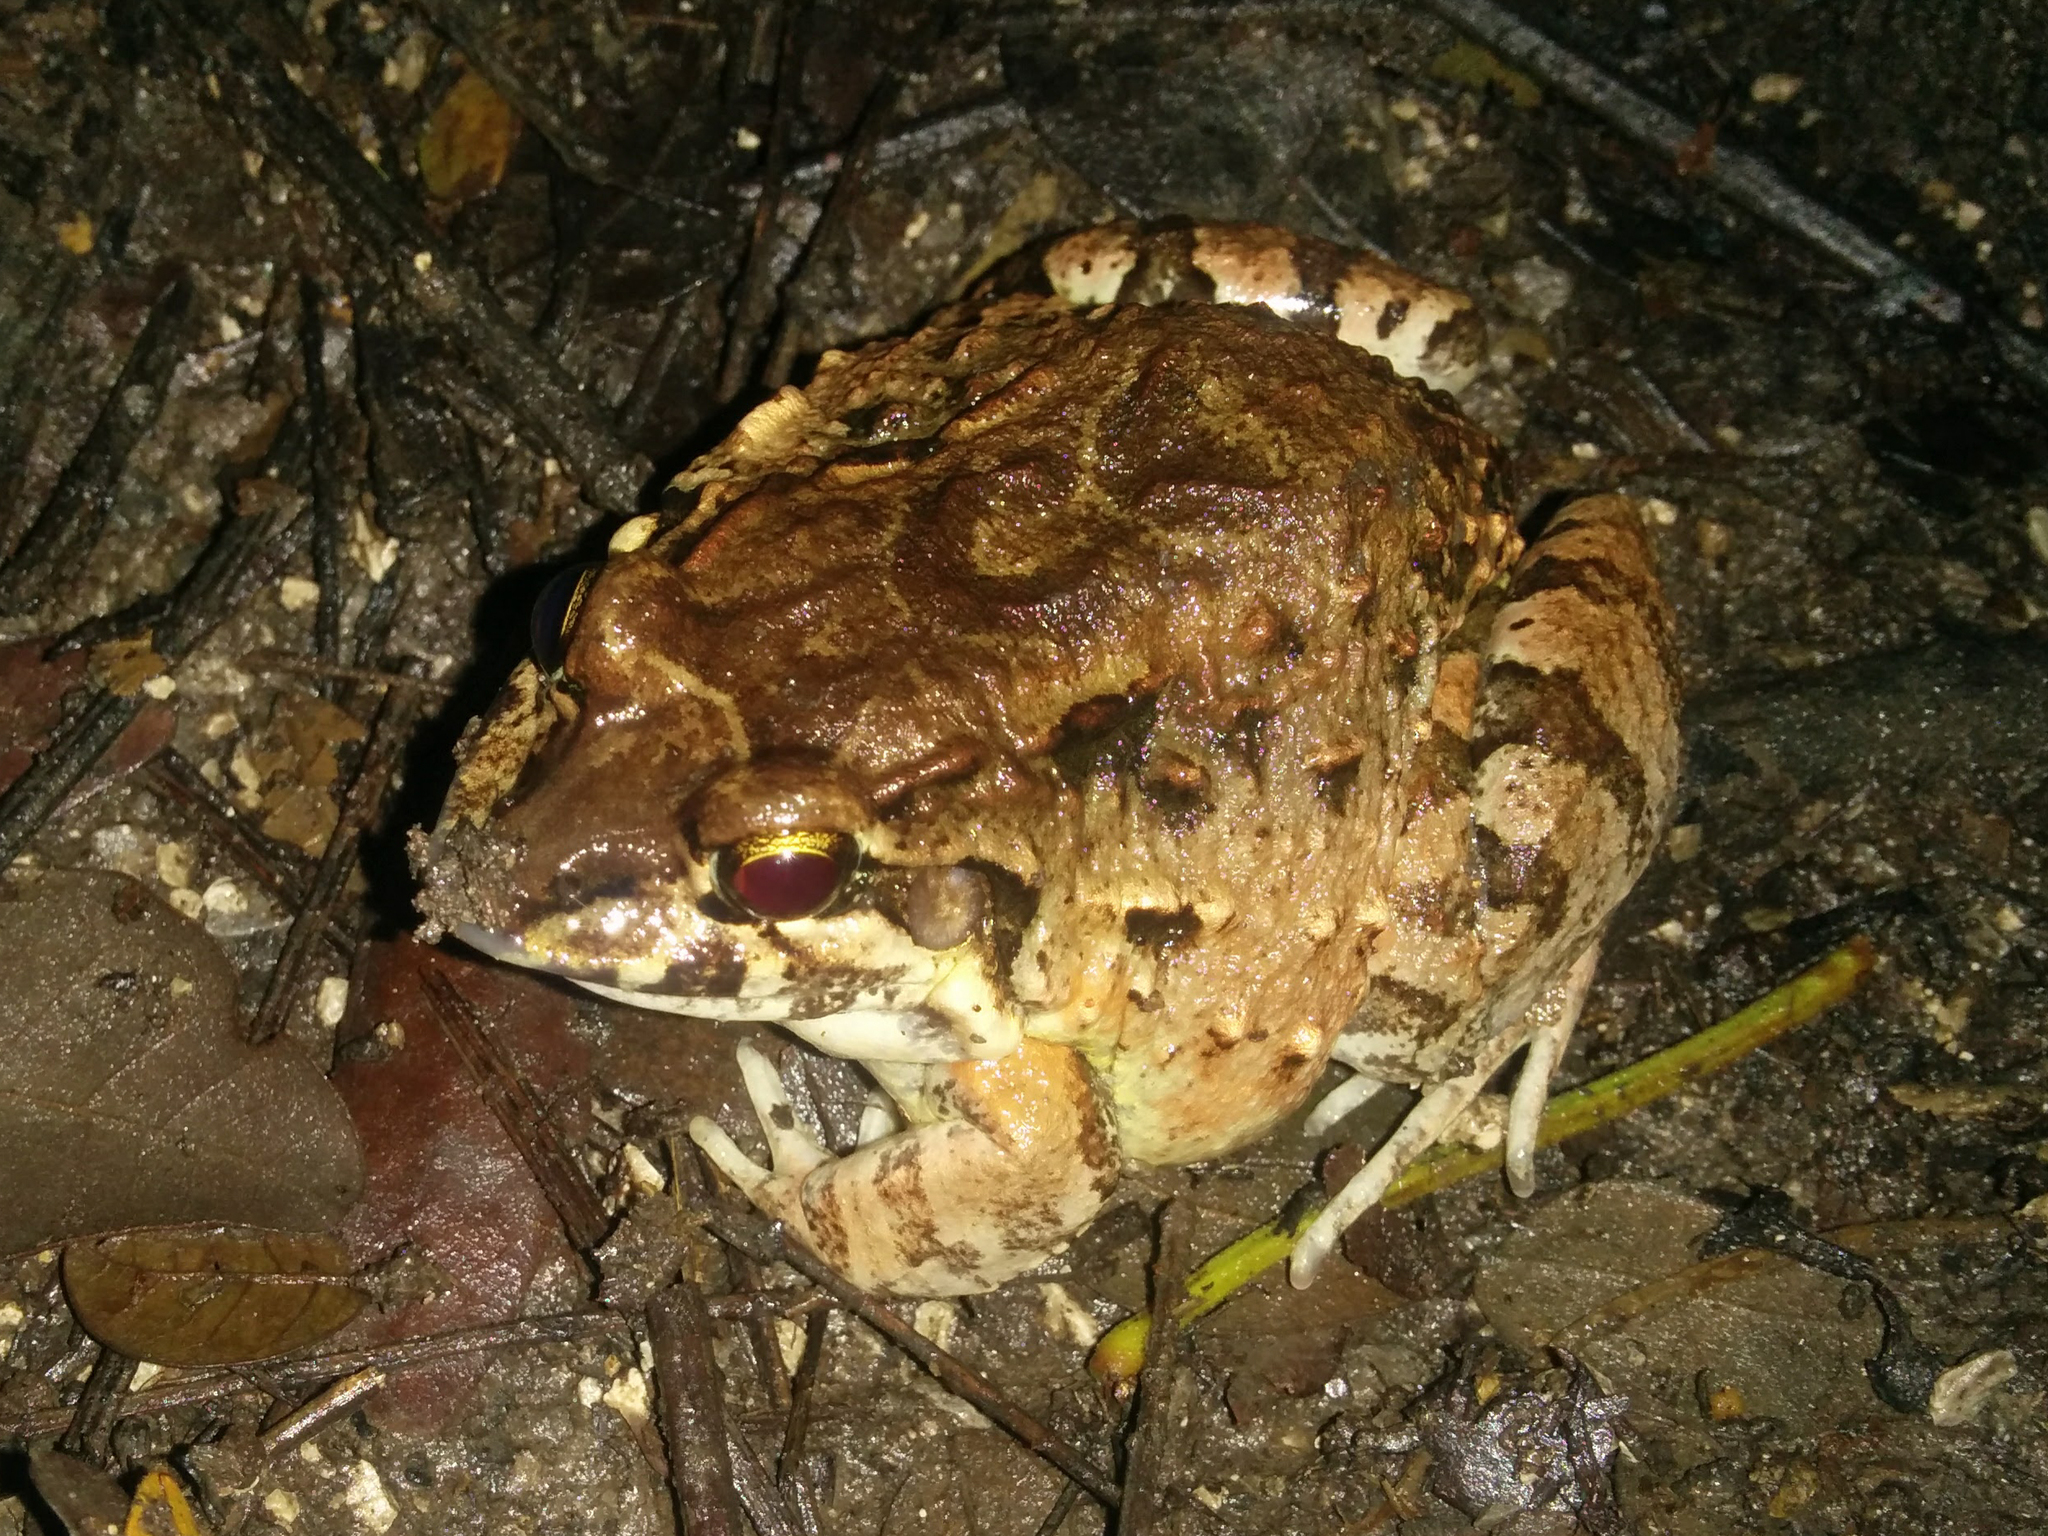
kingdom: Animalia
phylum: Chordata
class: Amphibia
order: Anura
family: Leptodactylidae
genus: Leptodactylus
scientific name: Leptodactylus labrosus
